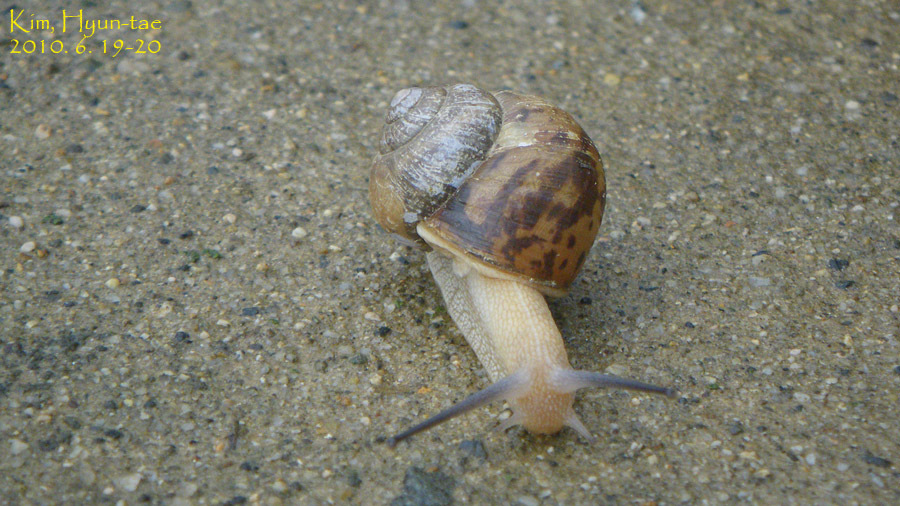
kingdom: Animalia
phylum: Mollusca
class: Gastropoda
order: Stylommatophora
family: Camaenidae
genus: Acusta
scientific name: Acusta redfieldi
